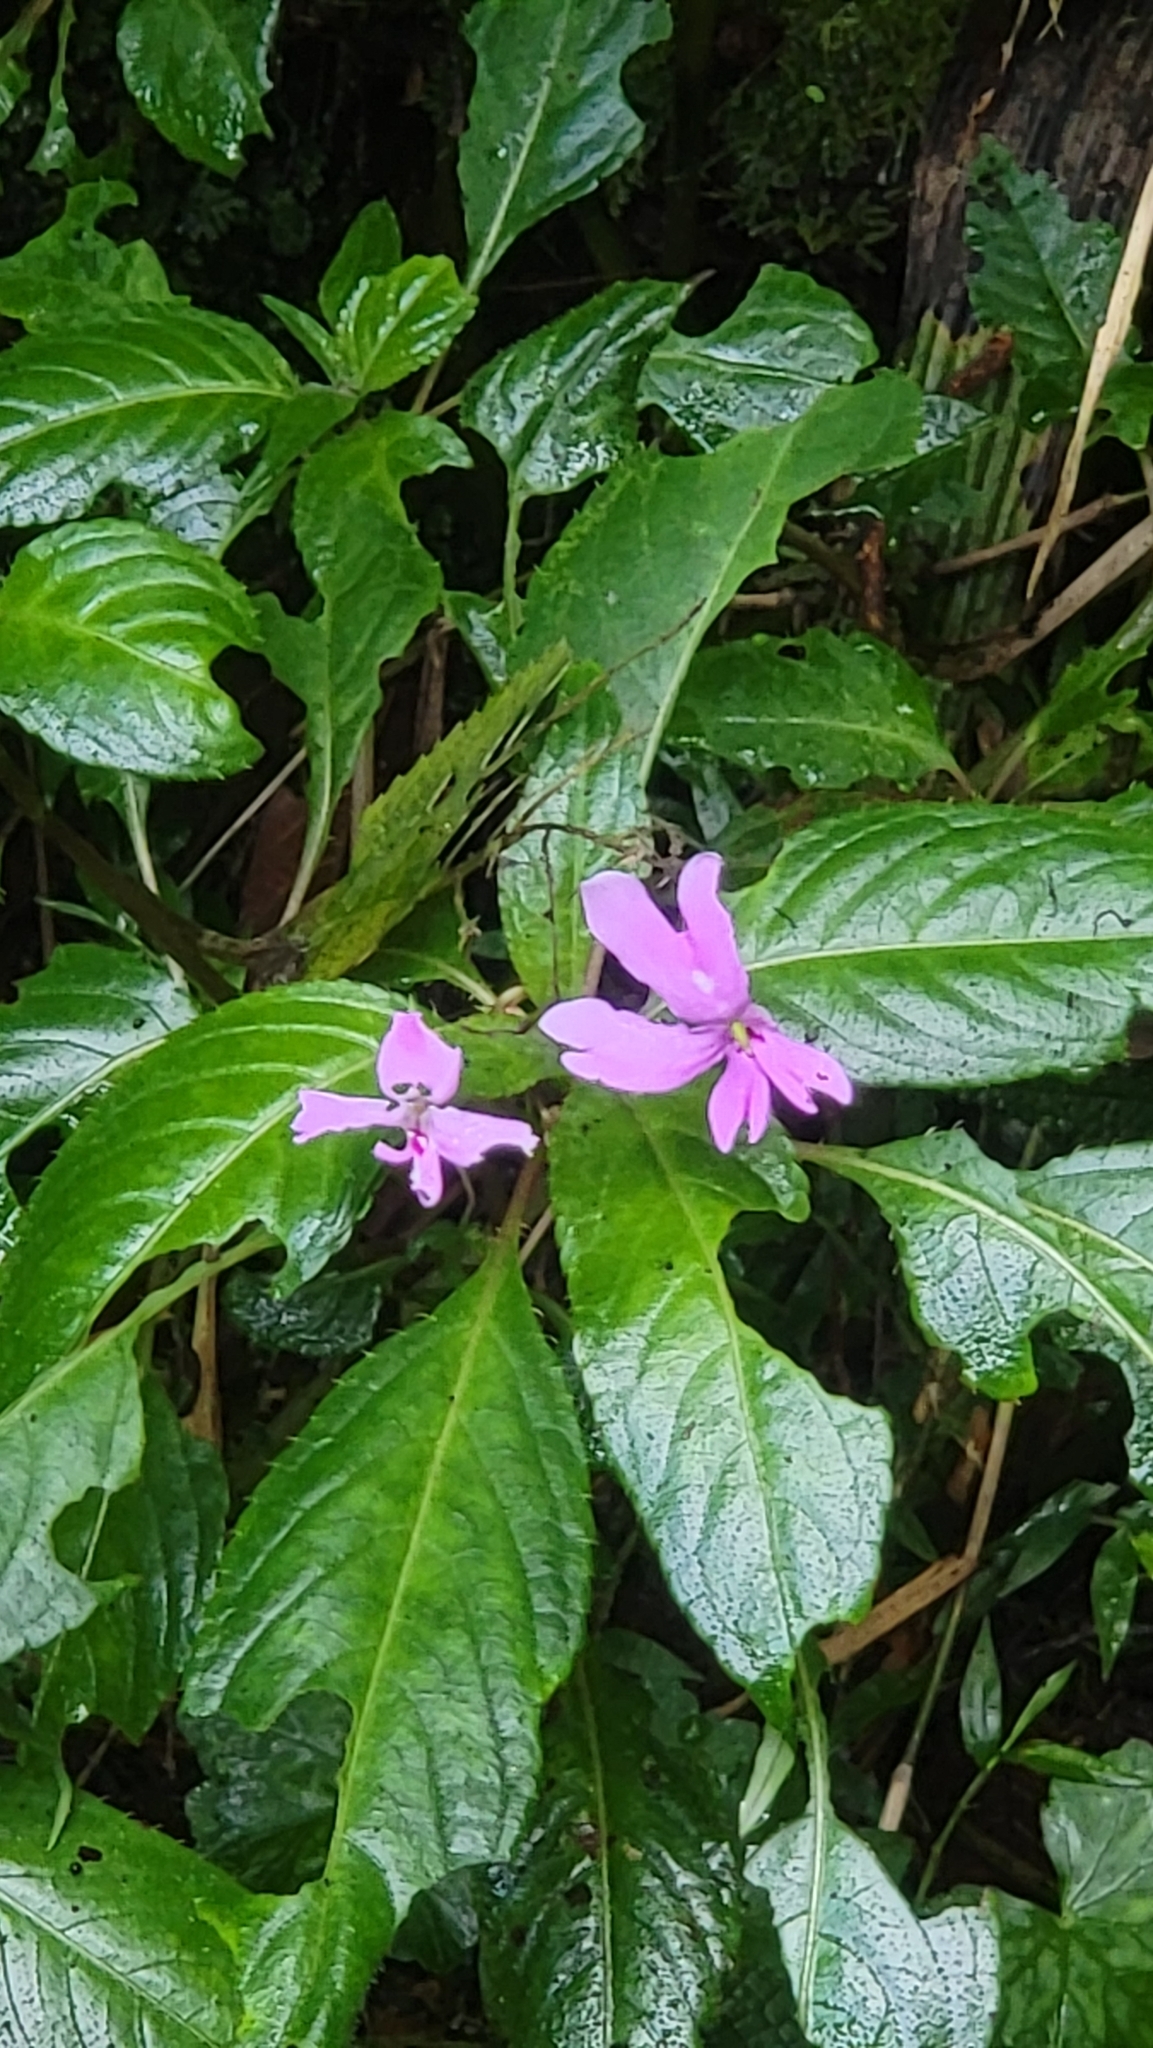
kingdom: Plantae
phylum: Tracheophyta
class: Magnoliopsida
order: Ericales
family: Balsaminaceae
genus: Impatiens
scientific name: Impatiens kinabaluensis
